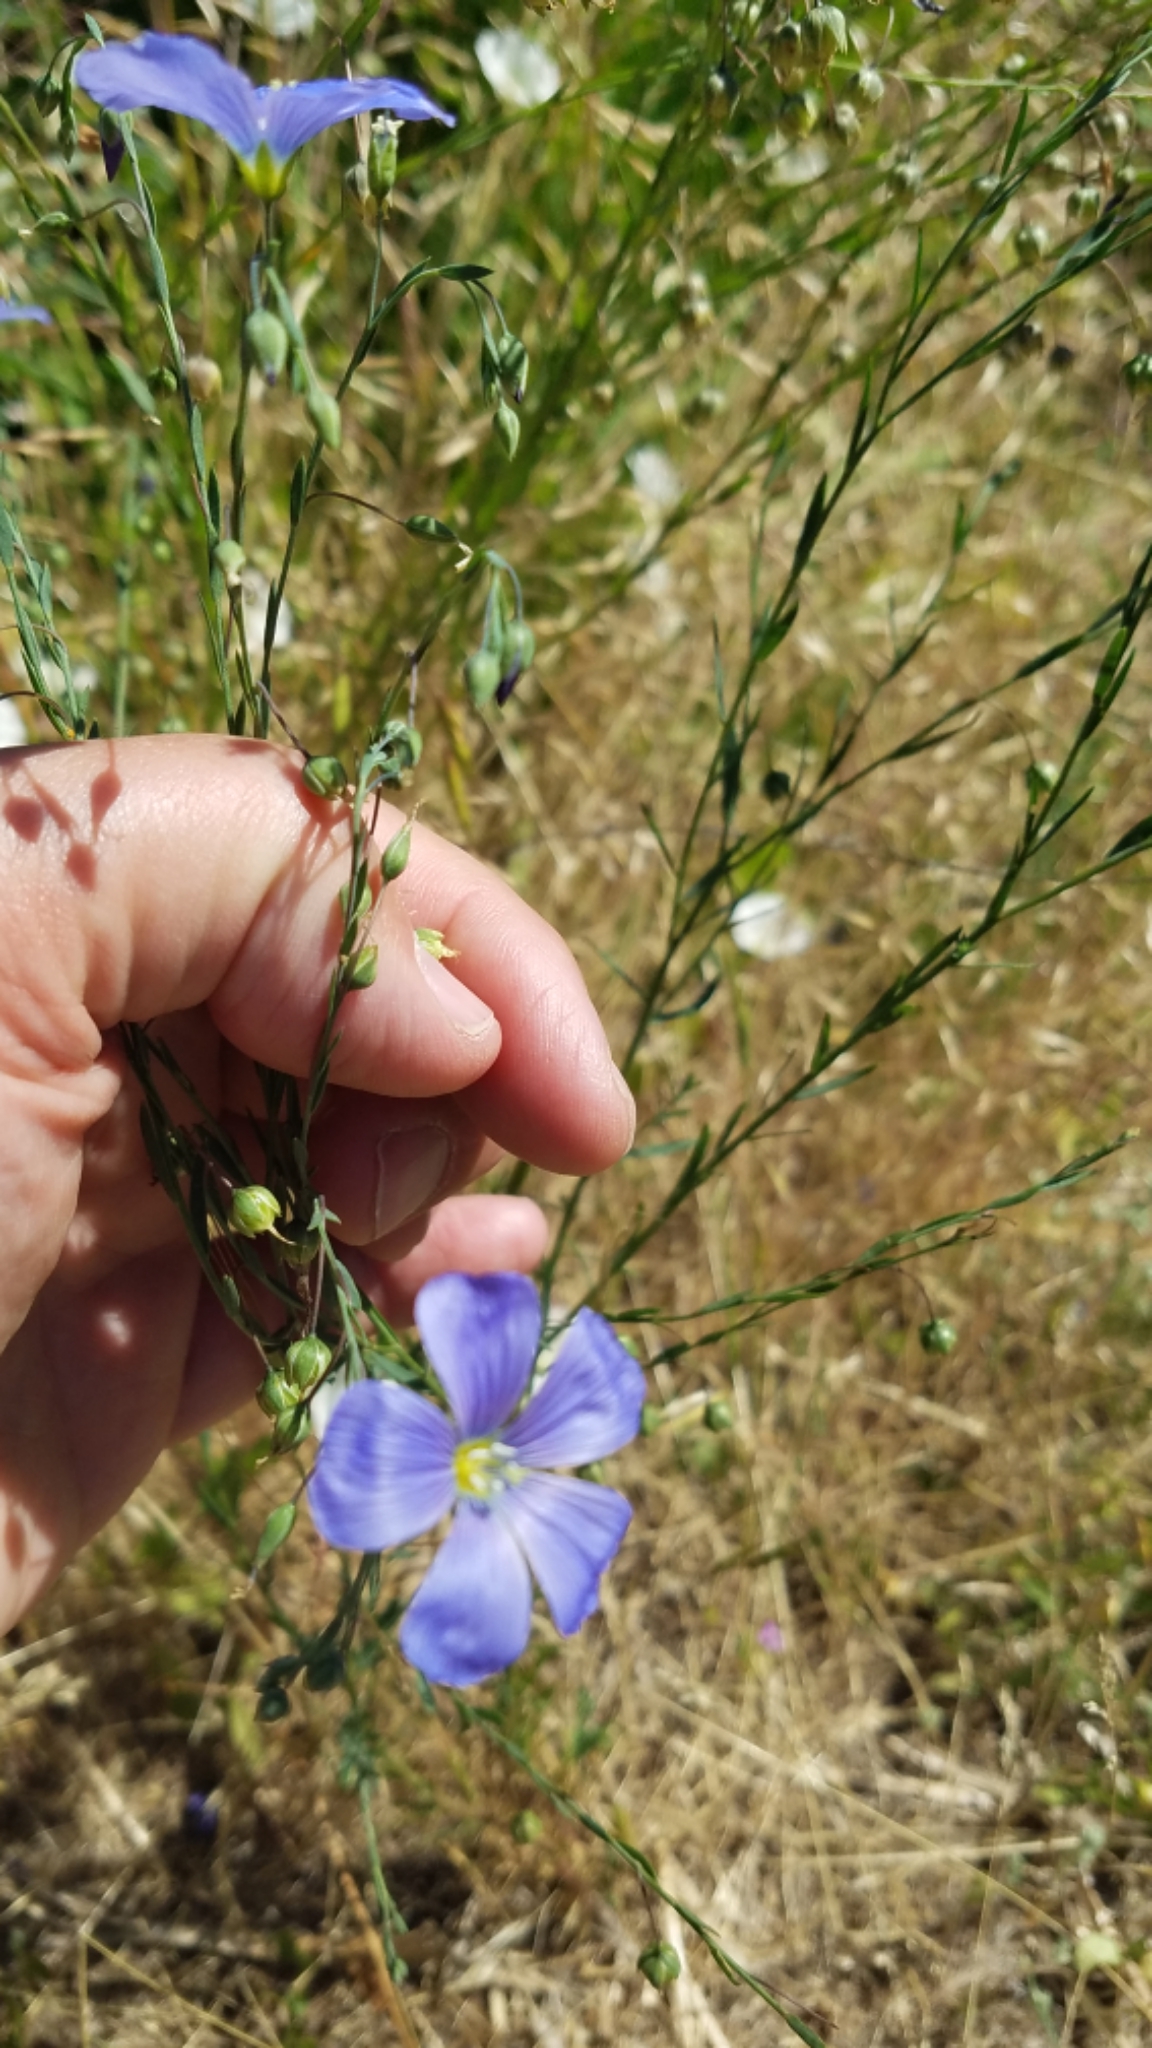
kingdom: Plantae
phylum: Tracheophyta
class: Magnoliopsida
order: Malpighiales
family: Linaceae
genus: Linum
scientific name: Linum lewisii
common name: Prairie flax
